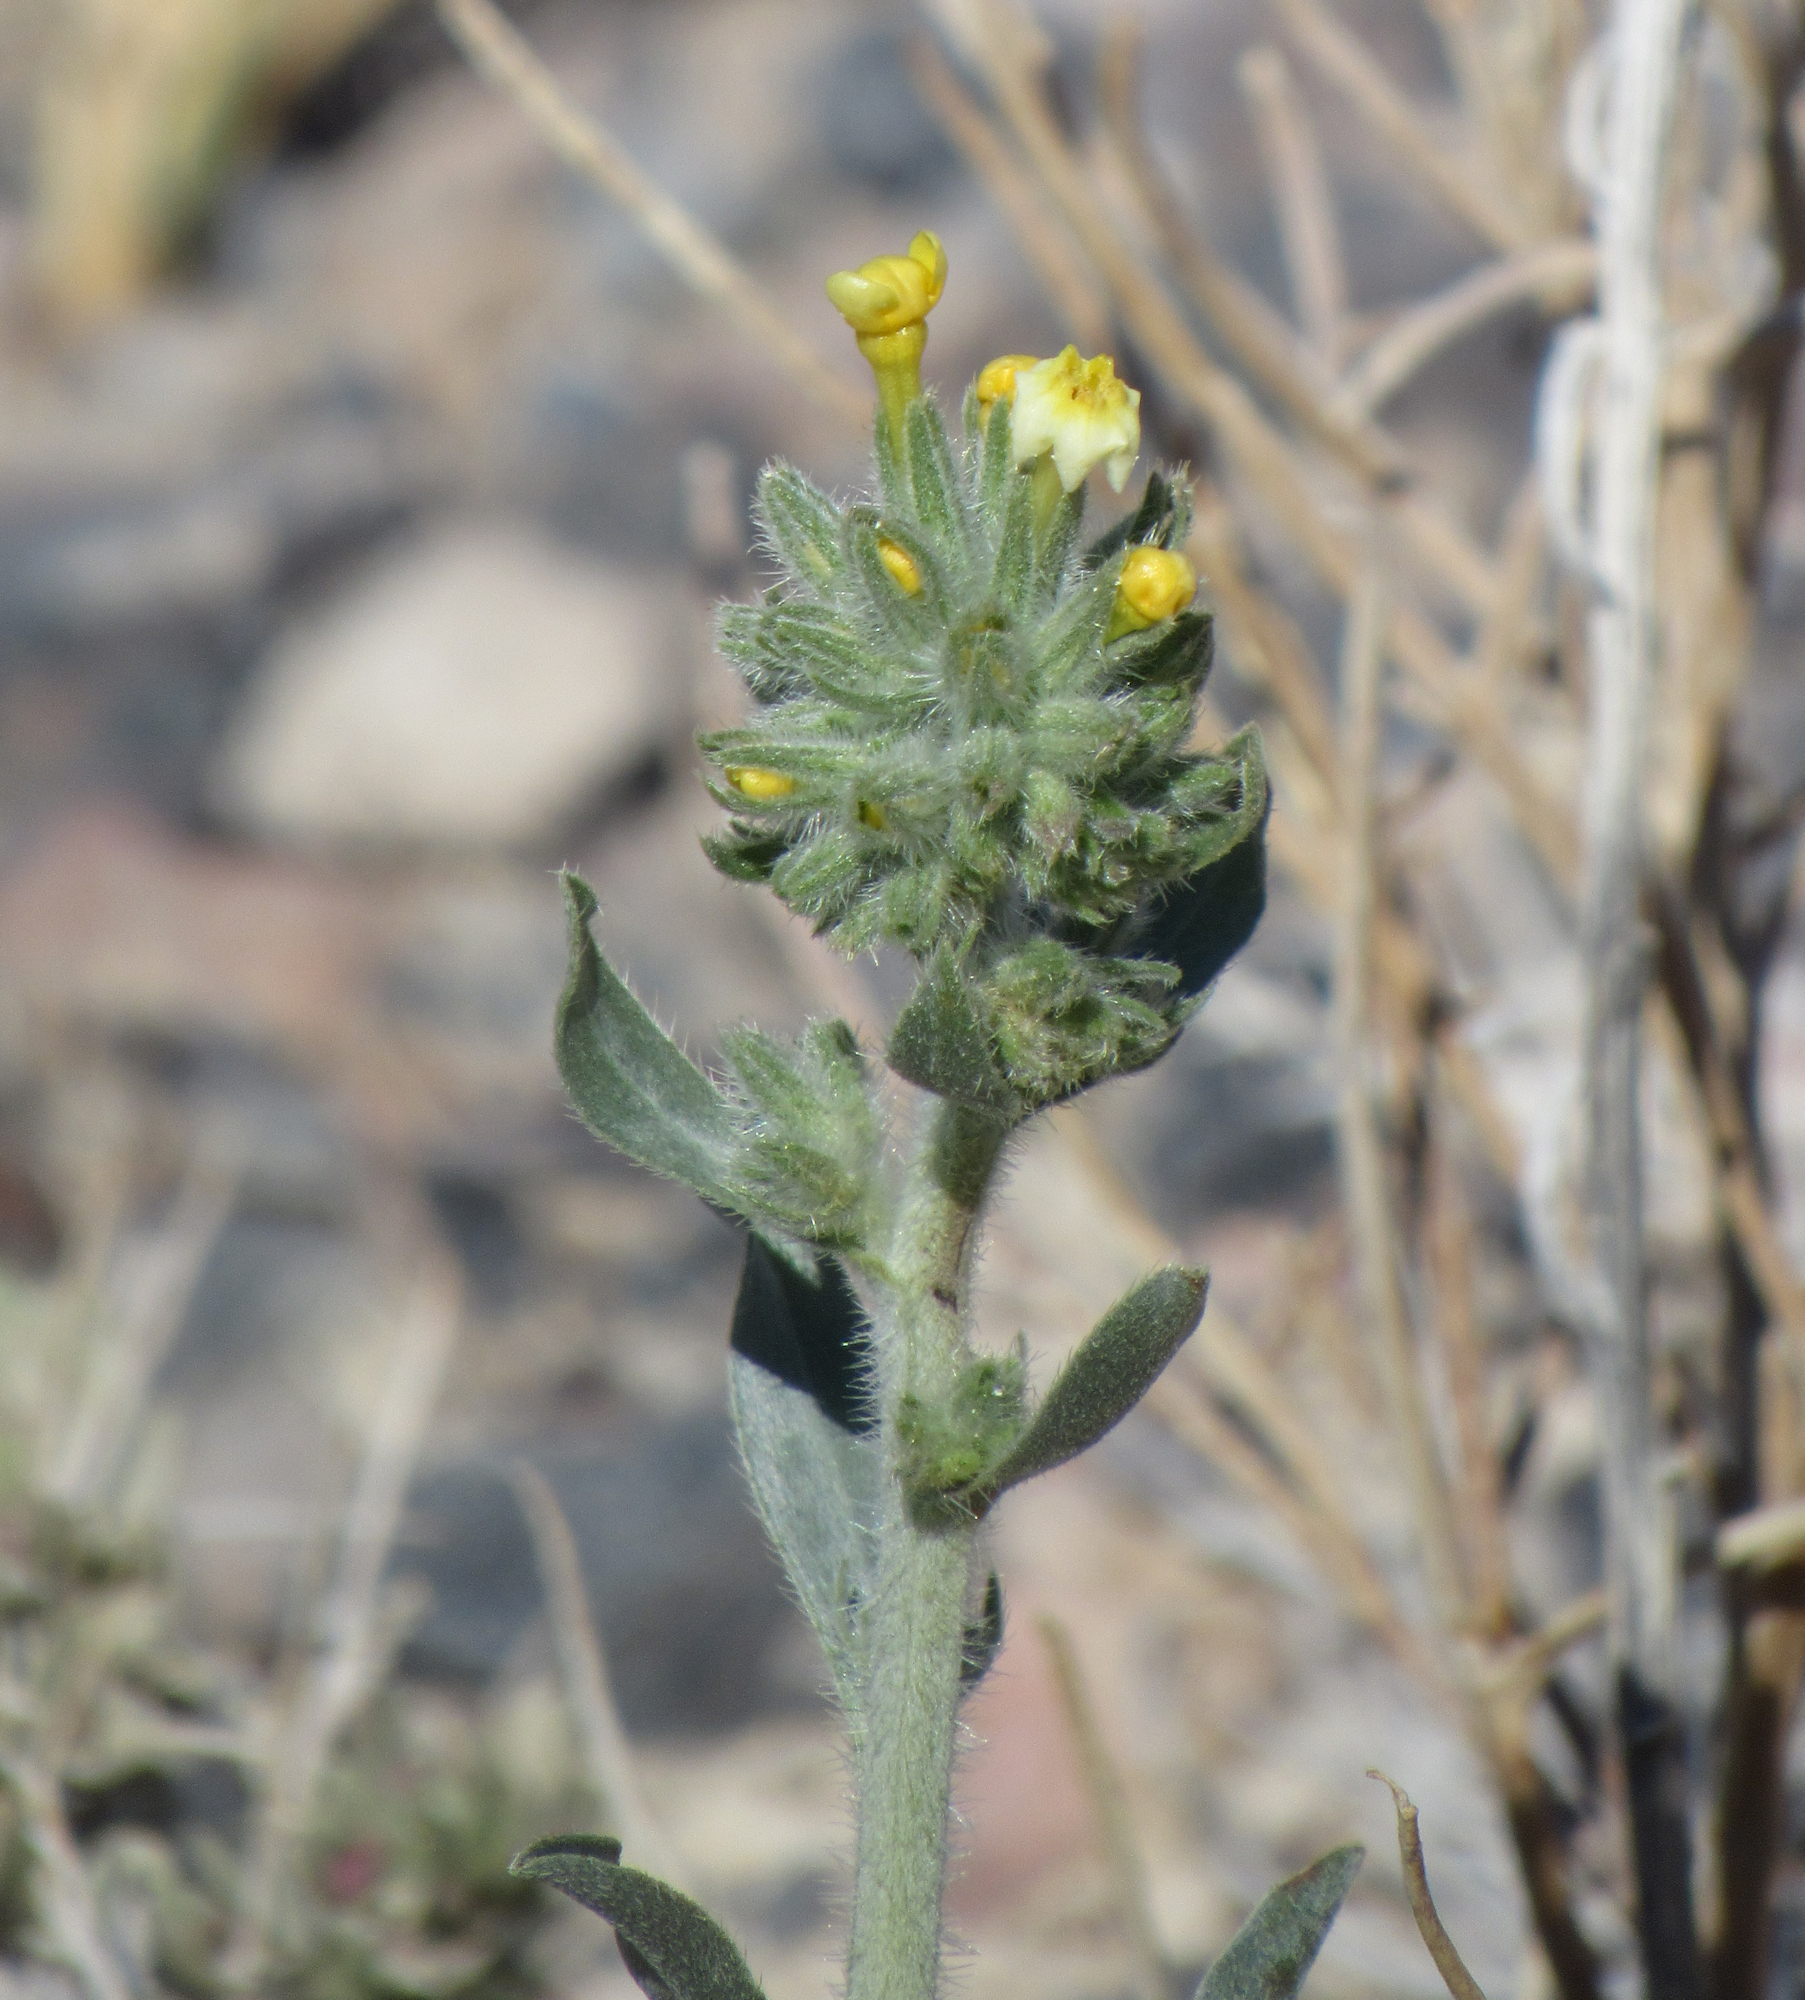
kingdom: Plantae
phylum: Tracheophyta
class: Magnoliopsida
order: Boraginales
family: Boraginaceae
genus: Oreocarya
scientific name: Oreocarya confertiflora
